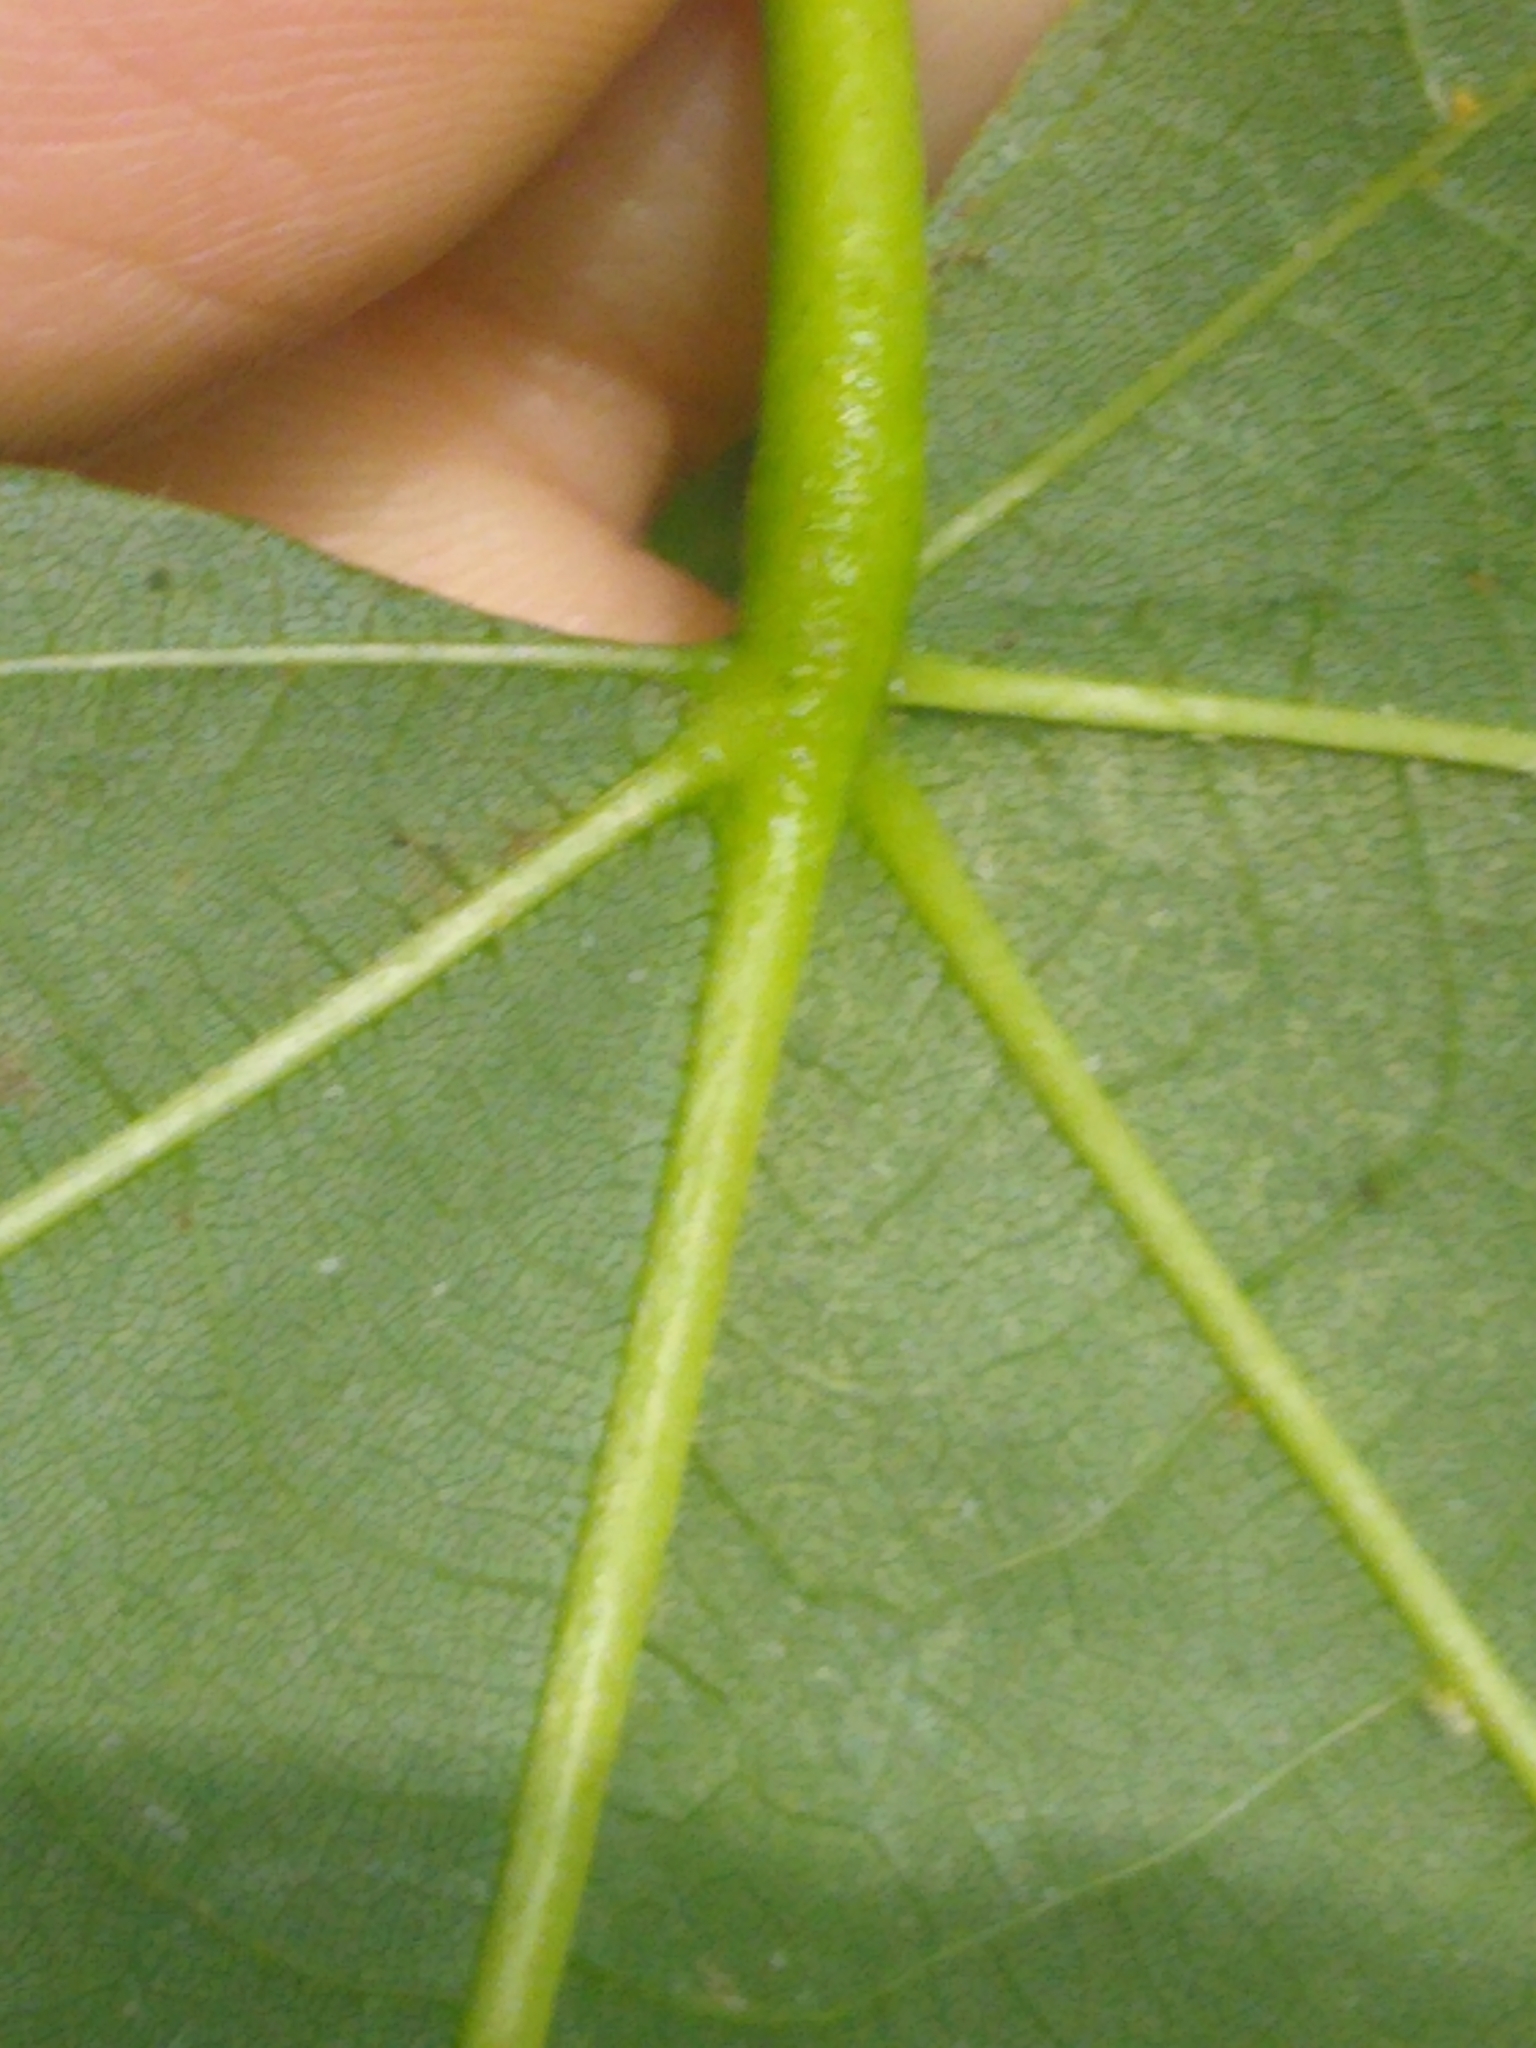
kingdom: Plantae
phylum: Tracheophyta
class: Magnoliopsida
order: Malvales
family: Malvaceae
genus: Tilia
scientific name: Tilia americana
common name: Basswood
